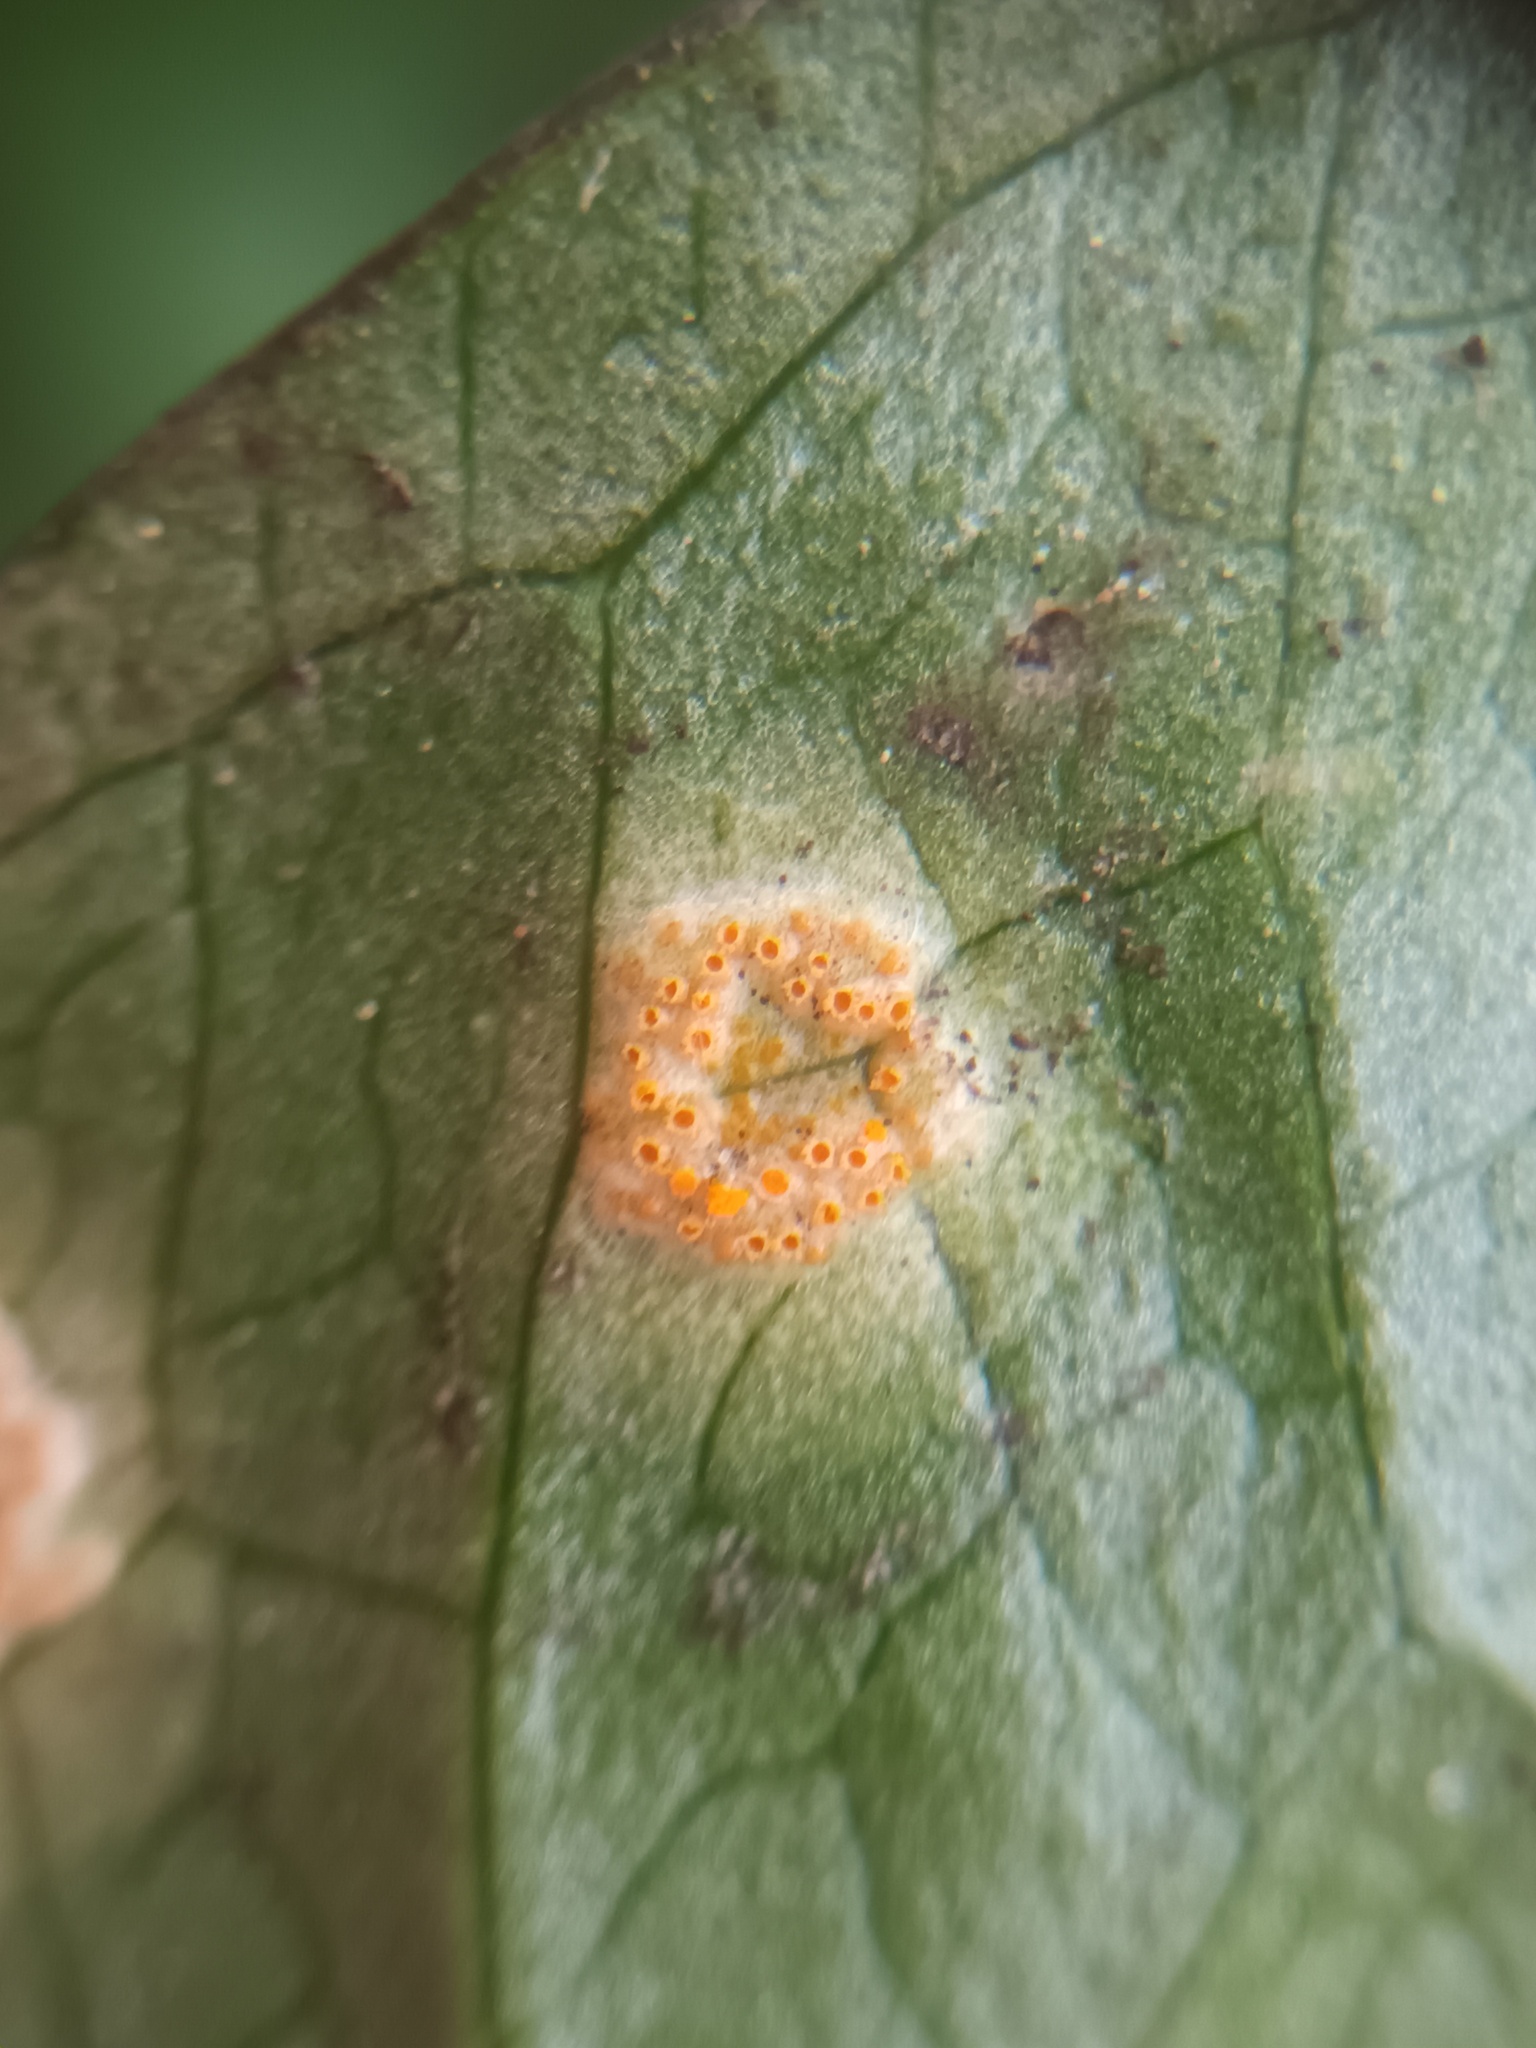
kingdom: Fungi
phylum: Basidiomycota
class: Pucciniomycetes
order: Pucciniales
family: Pucciniaceae
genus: Puccinia
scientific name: Puccinia sessilis
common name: Arum rust
